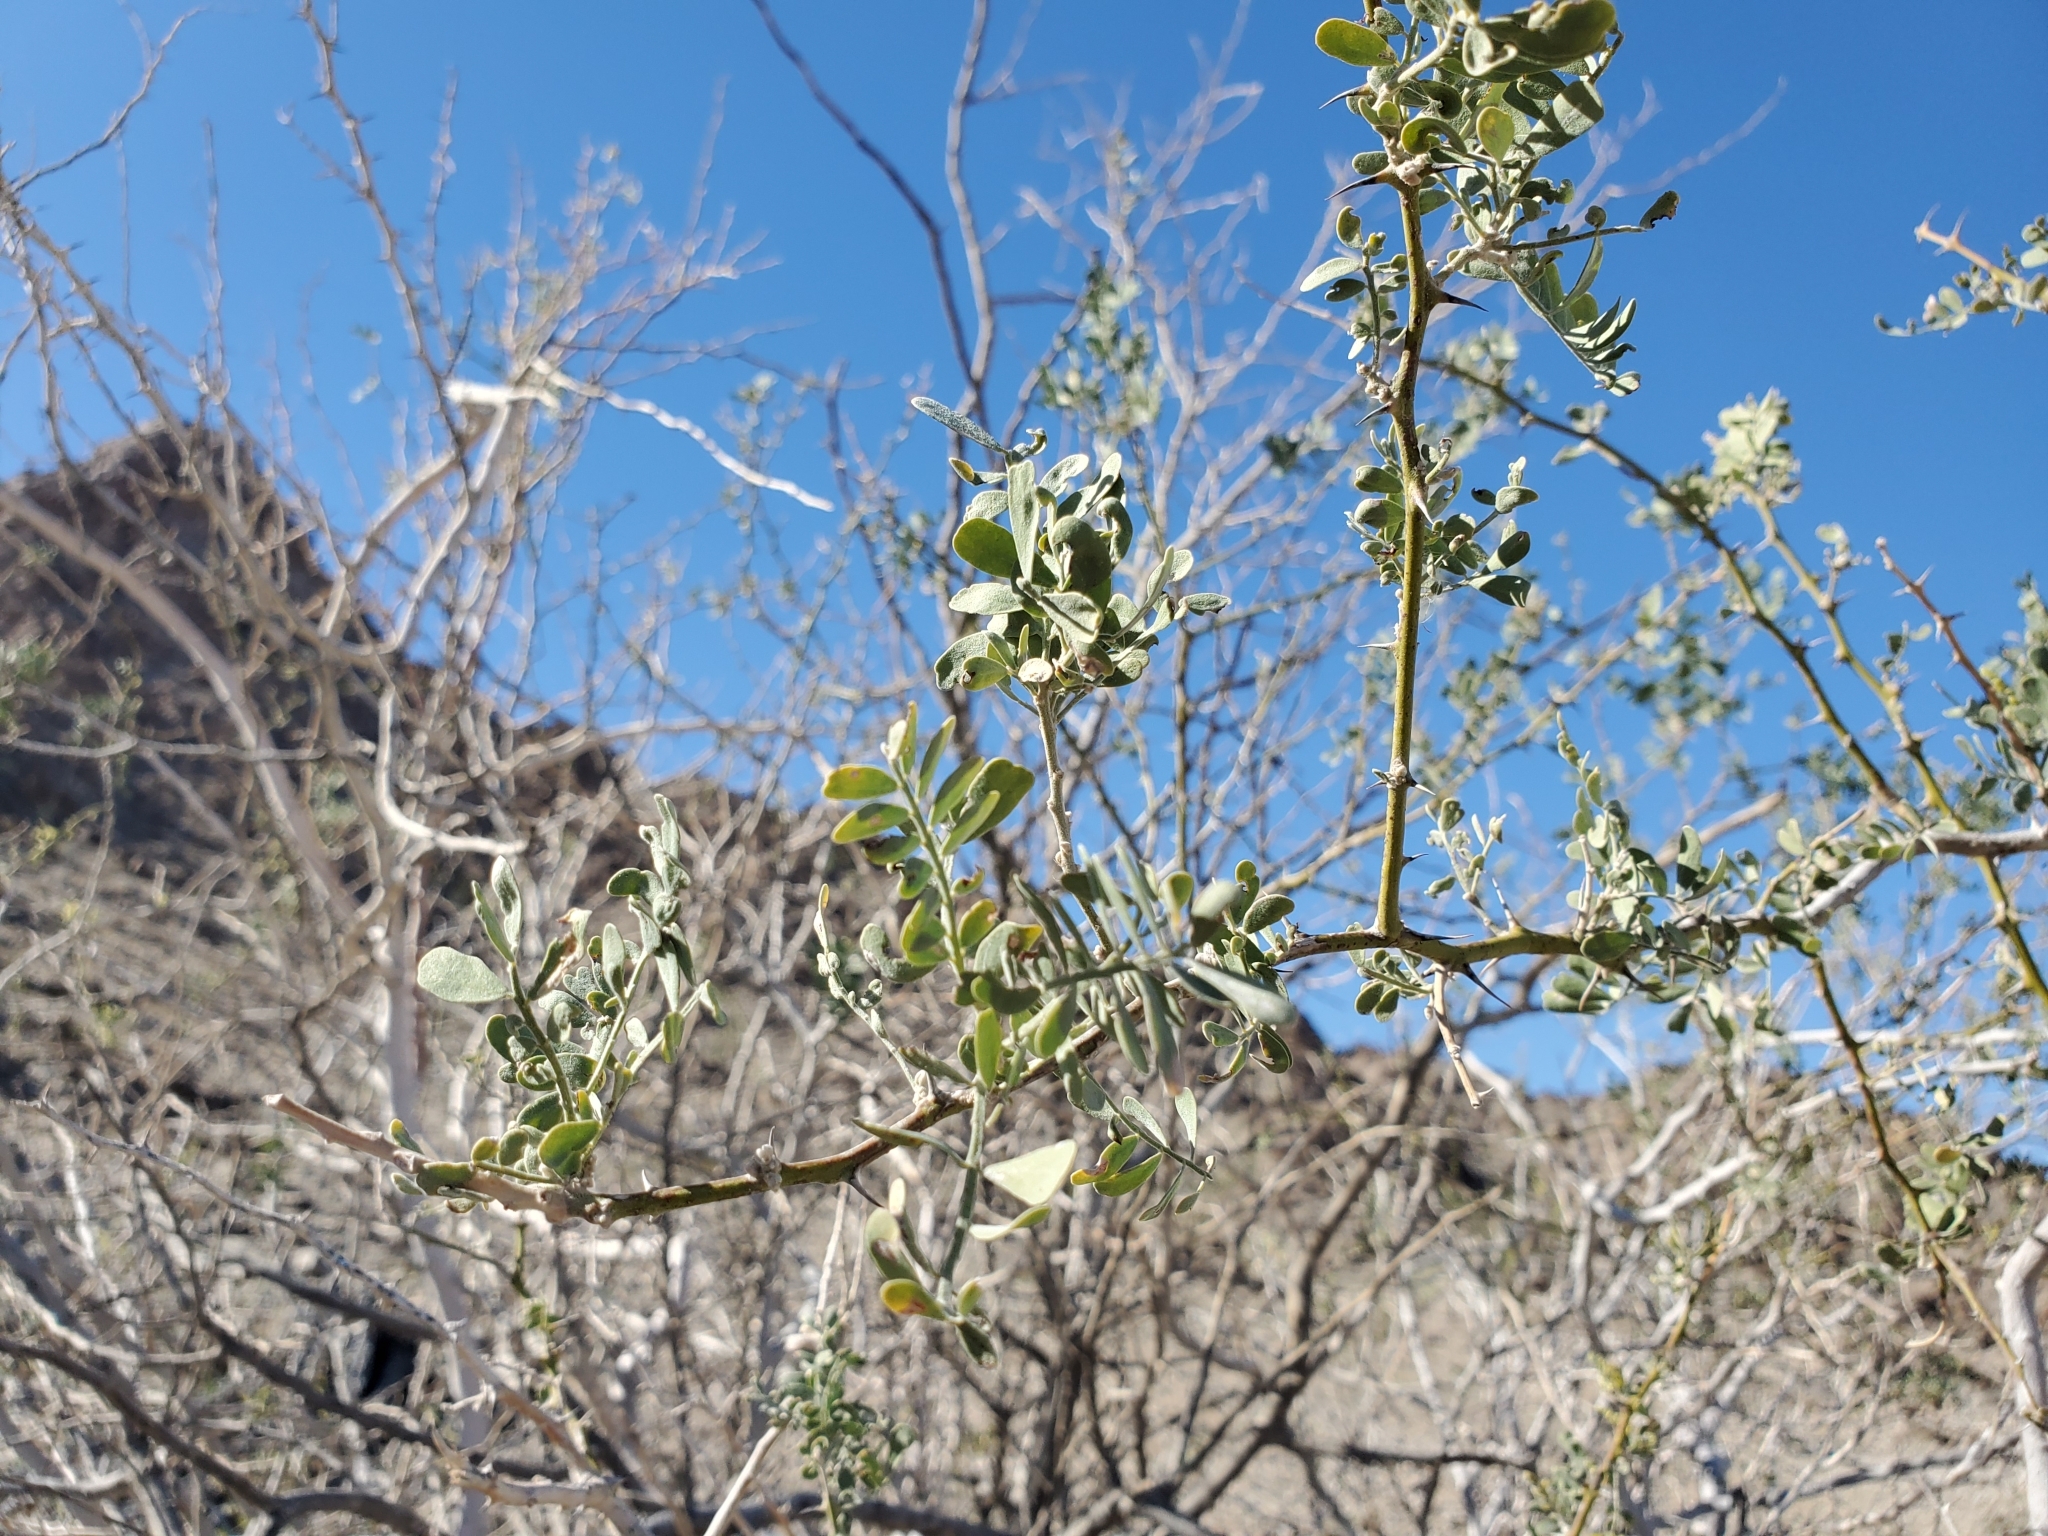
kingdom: Plantae
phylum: Tracheophyta
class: Magnoliopsida
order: Fabales
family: Fabaceae
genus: Olneya
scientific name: Olneya tesota
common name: Desert ironwood
